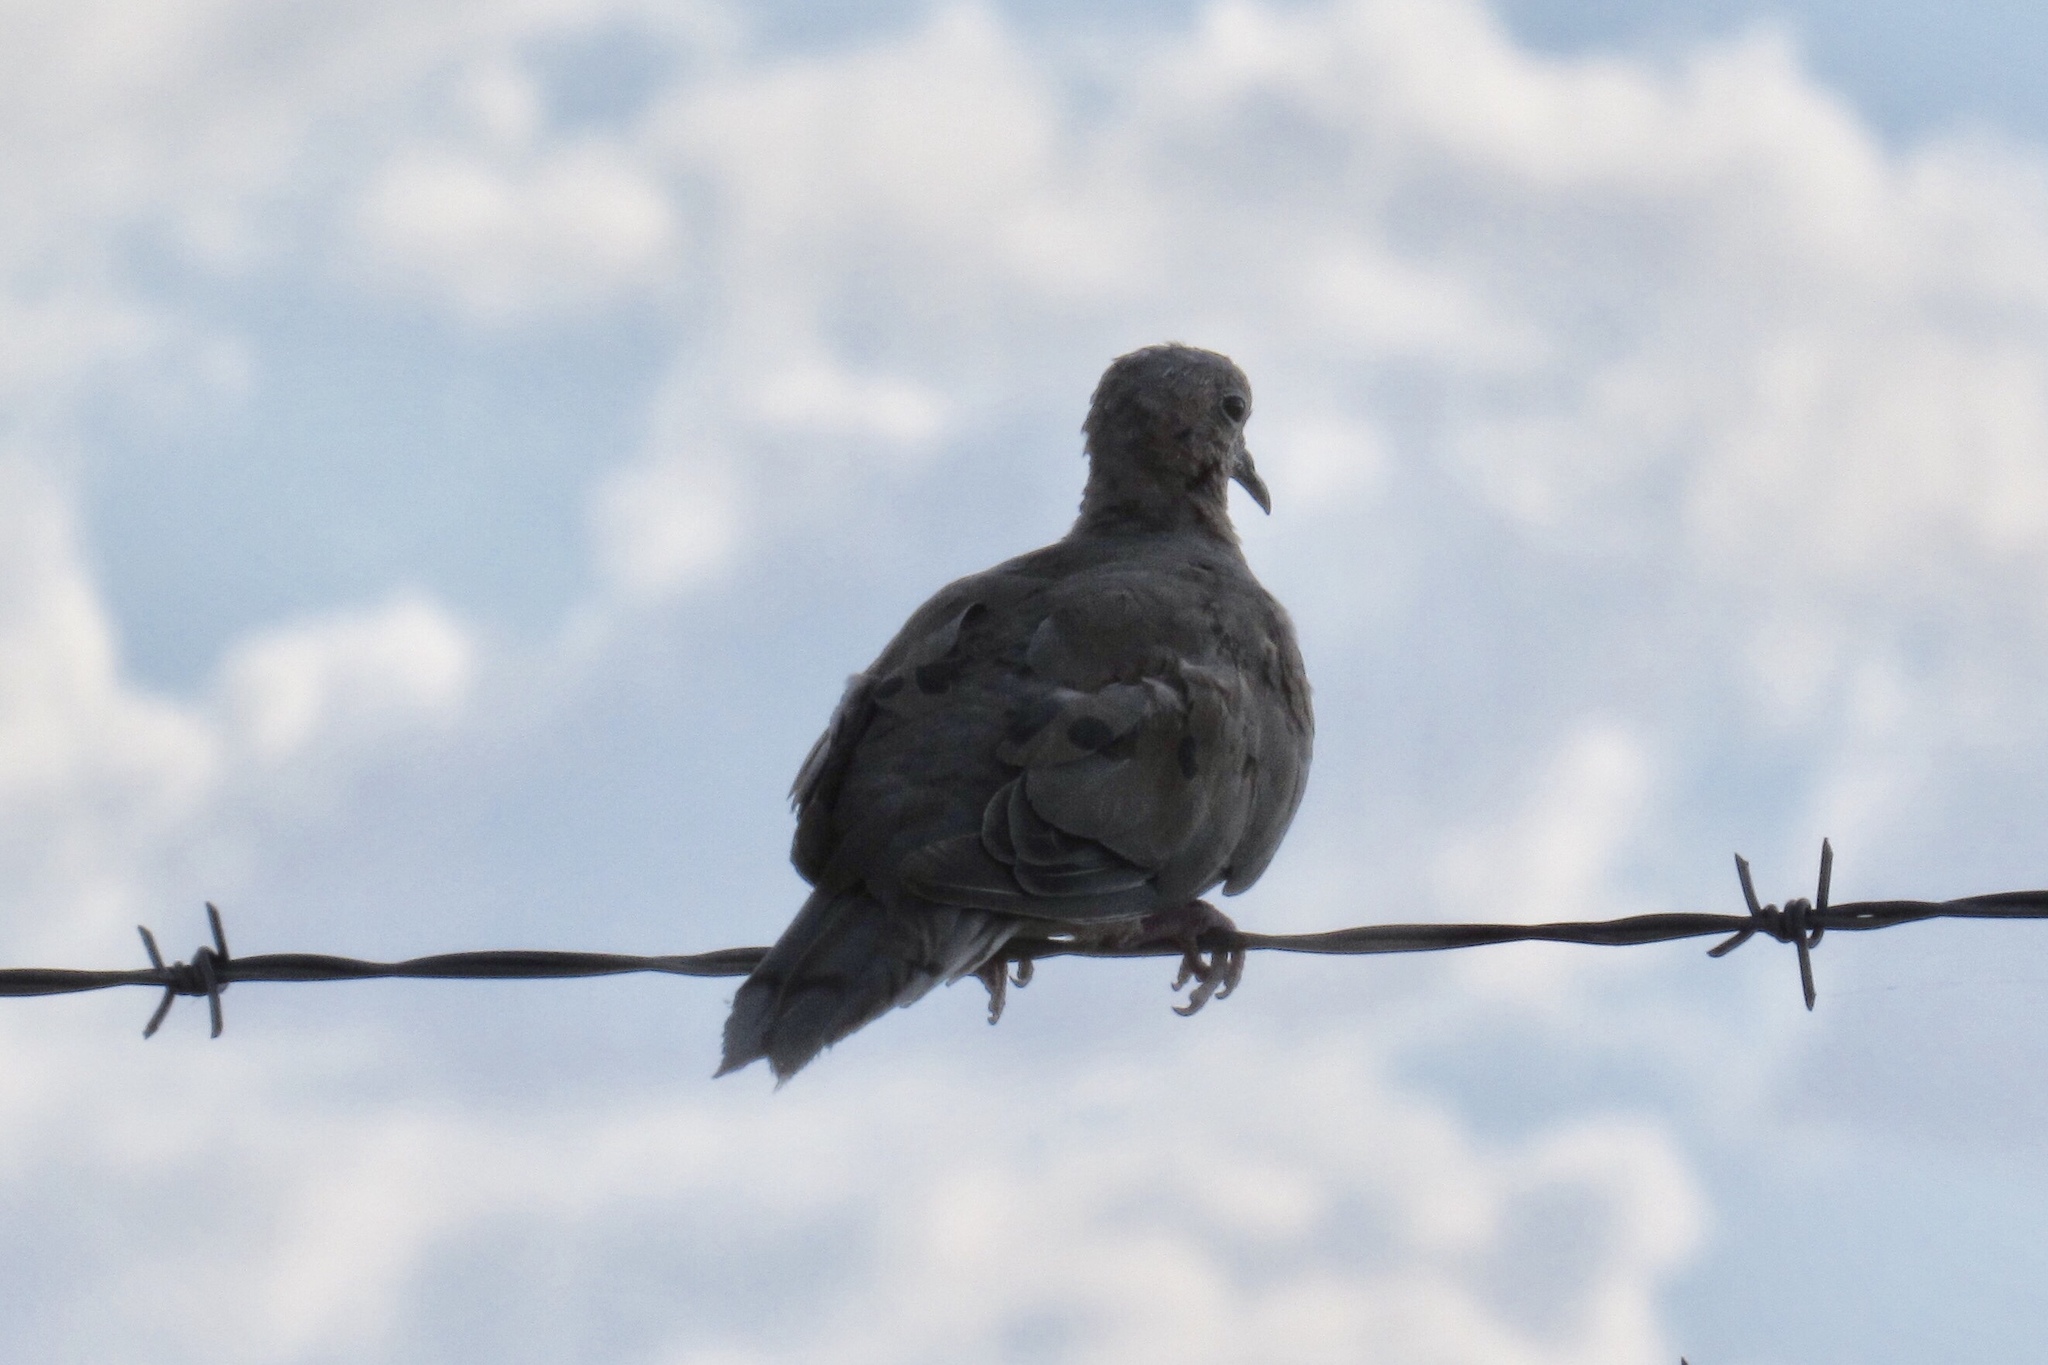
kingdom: Animalia
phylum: Chordata
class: Aves
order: Columbiformes
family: Columbidae
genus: Zenaida
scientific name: Zenaida macroura
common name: Mourning dove
